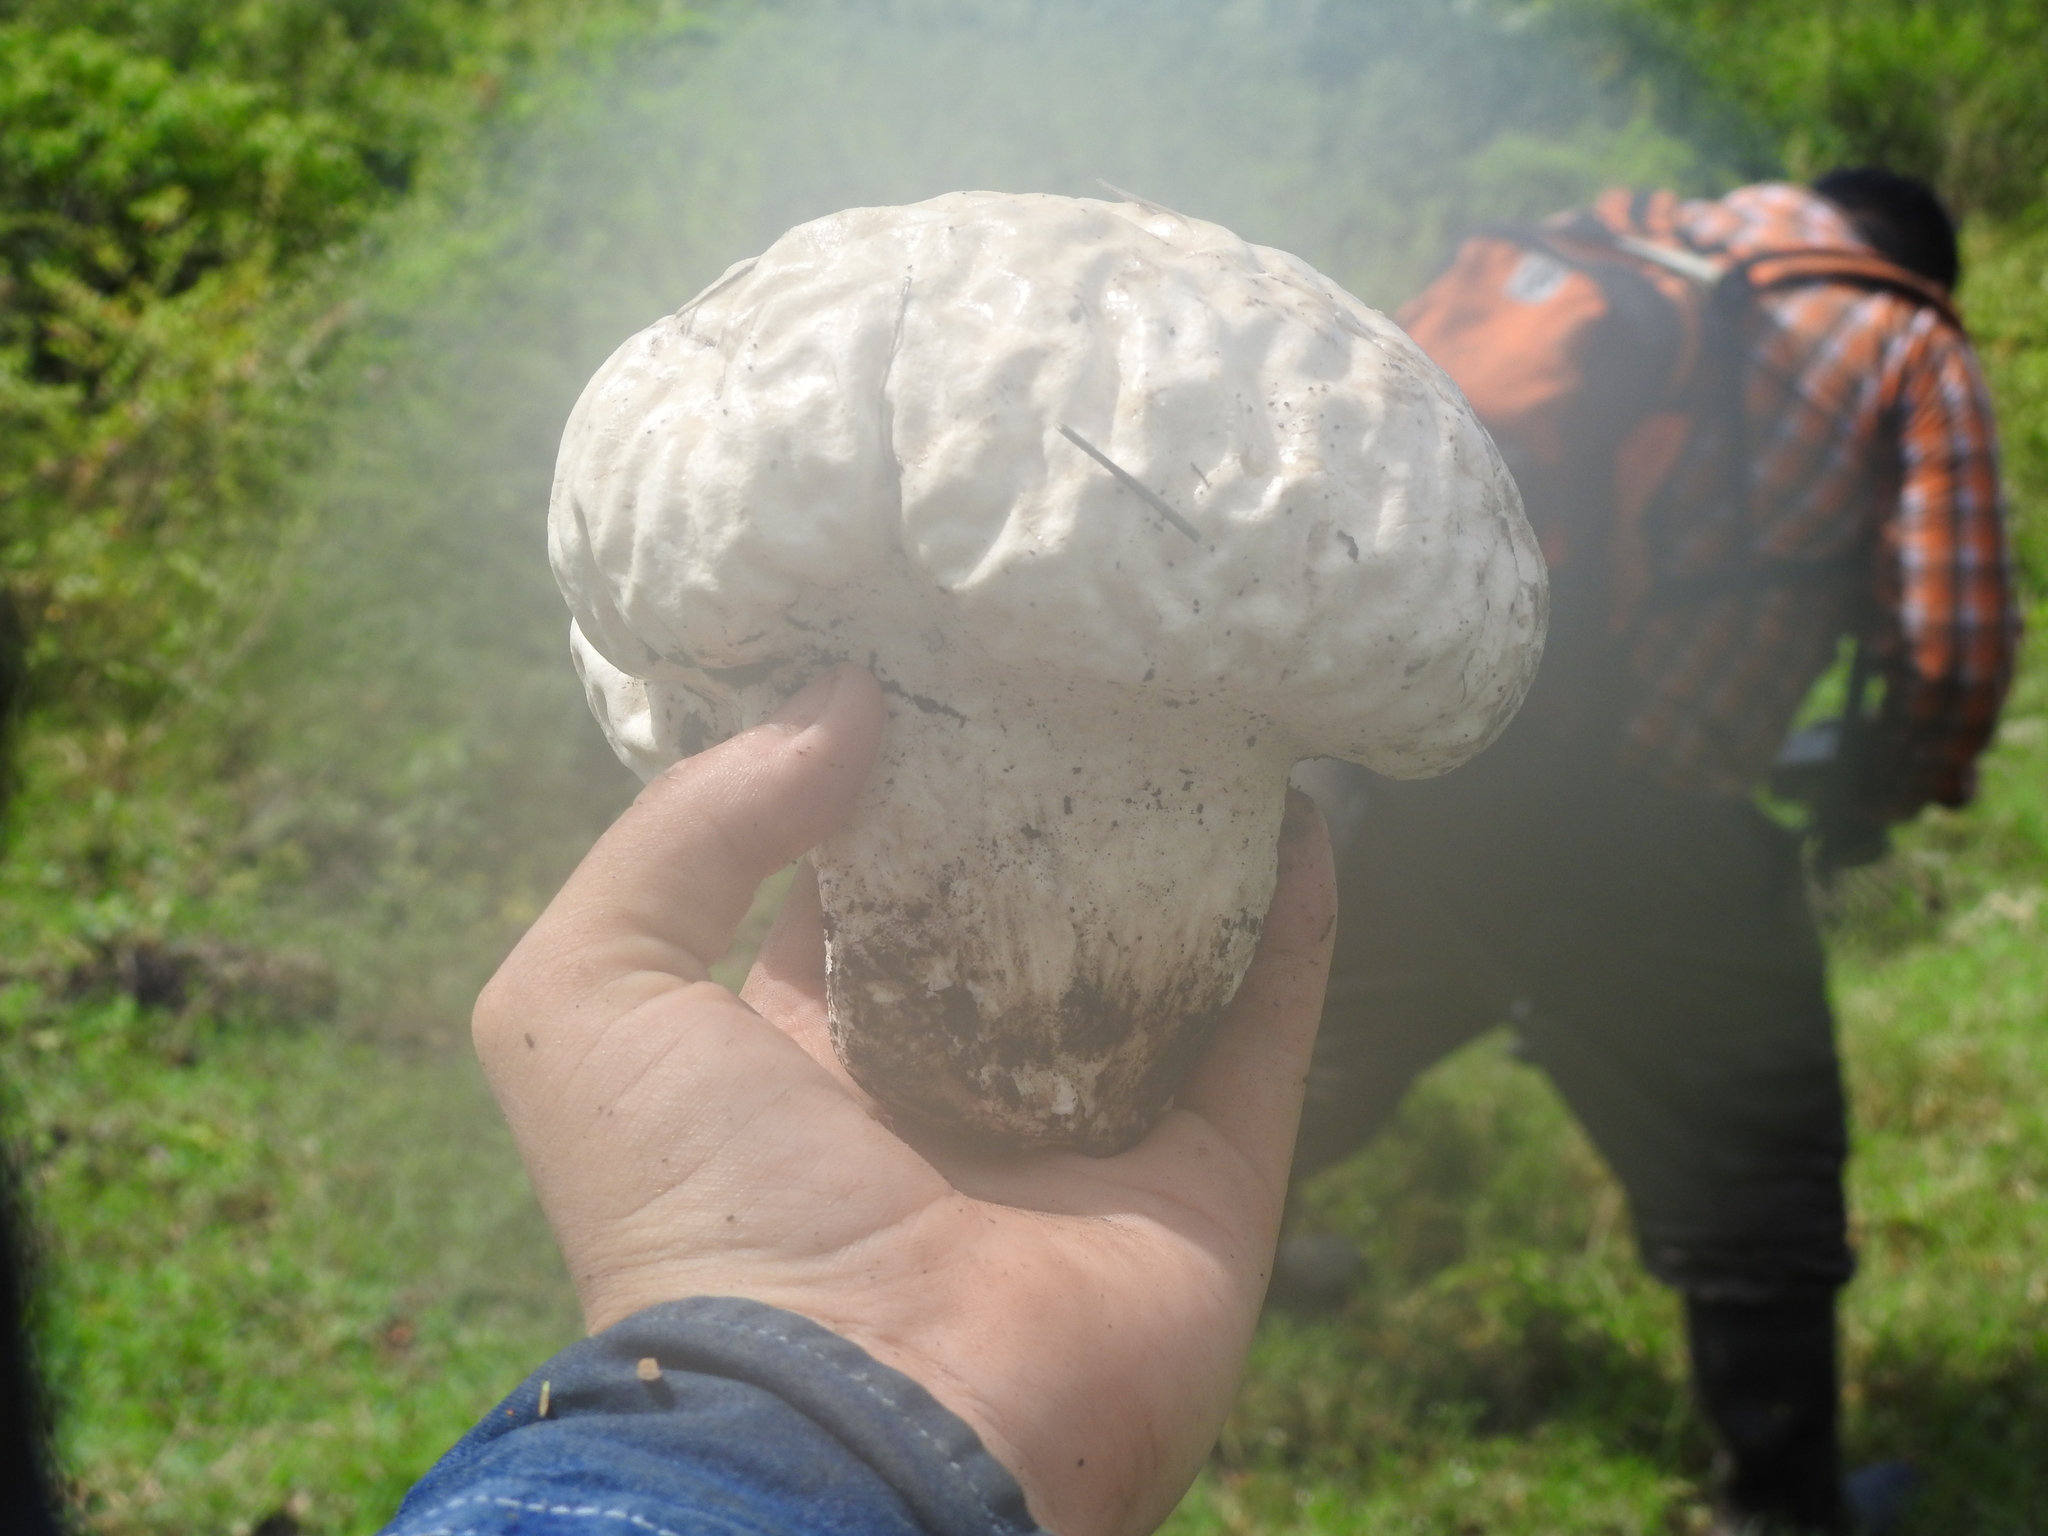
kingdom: Fungi
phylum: Basidiomycota
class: Agaricomycetes
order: Agaricales
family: Lycoperdaceae
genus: Calvatia
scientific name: Calvatia craniiformis
